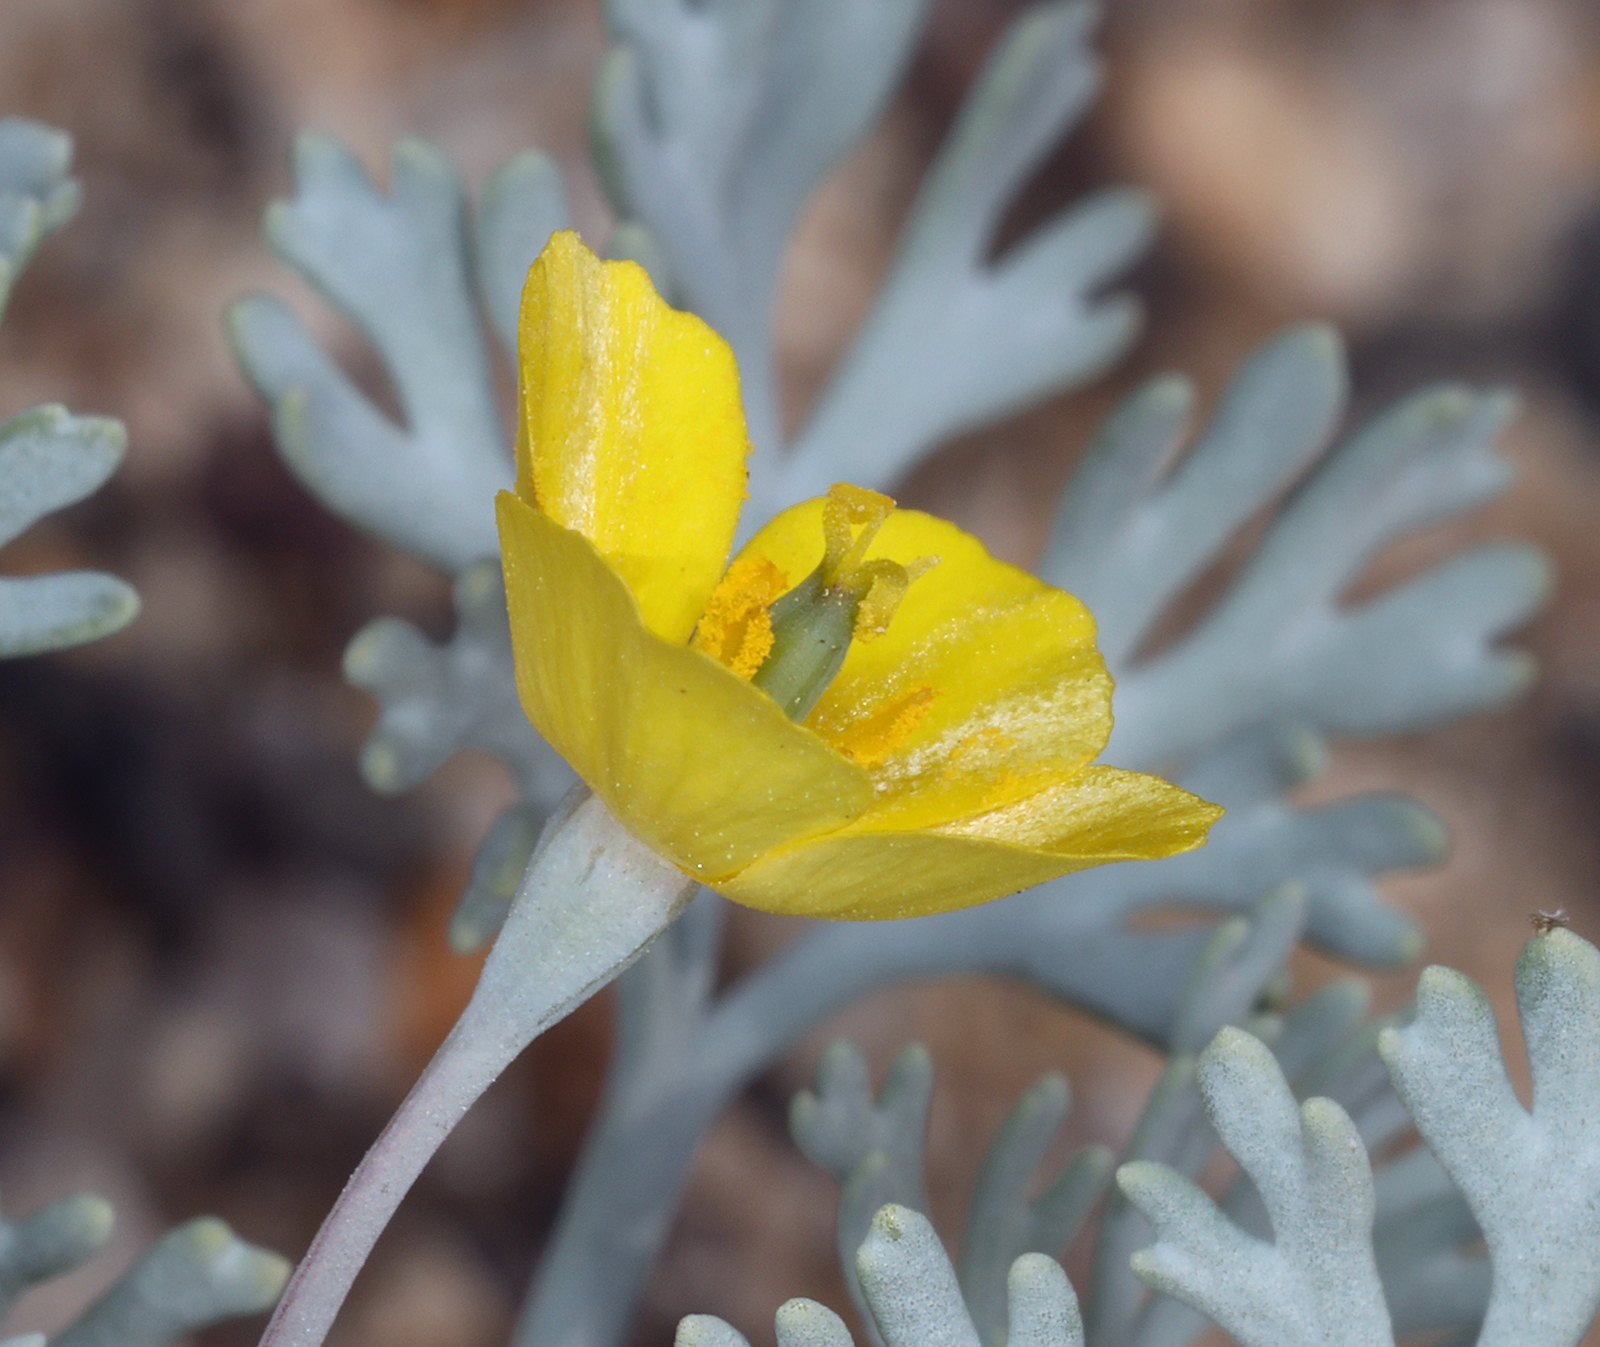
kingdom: Plantae
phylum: Tracheophyta
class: Magnoliopsida
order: Ranunculales
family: Papaveraceae
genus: Eschscholzia
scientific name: Eschscholzia minutiflora
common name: Small-flower california-poppy
